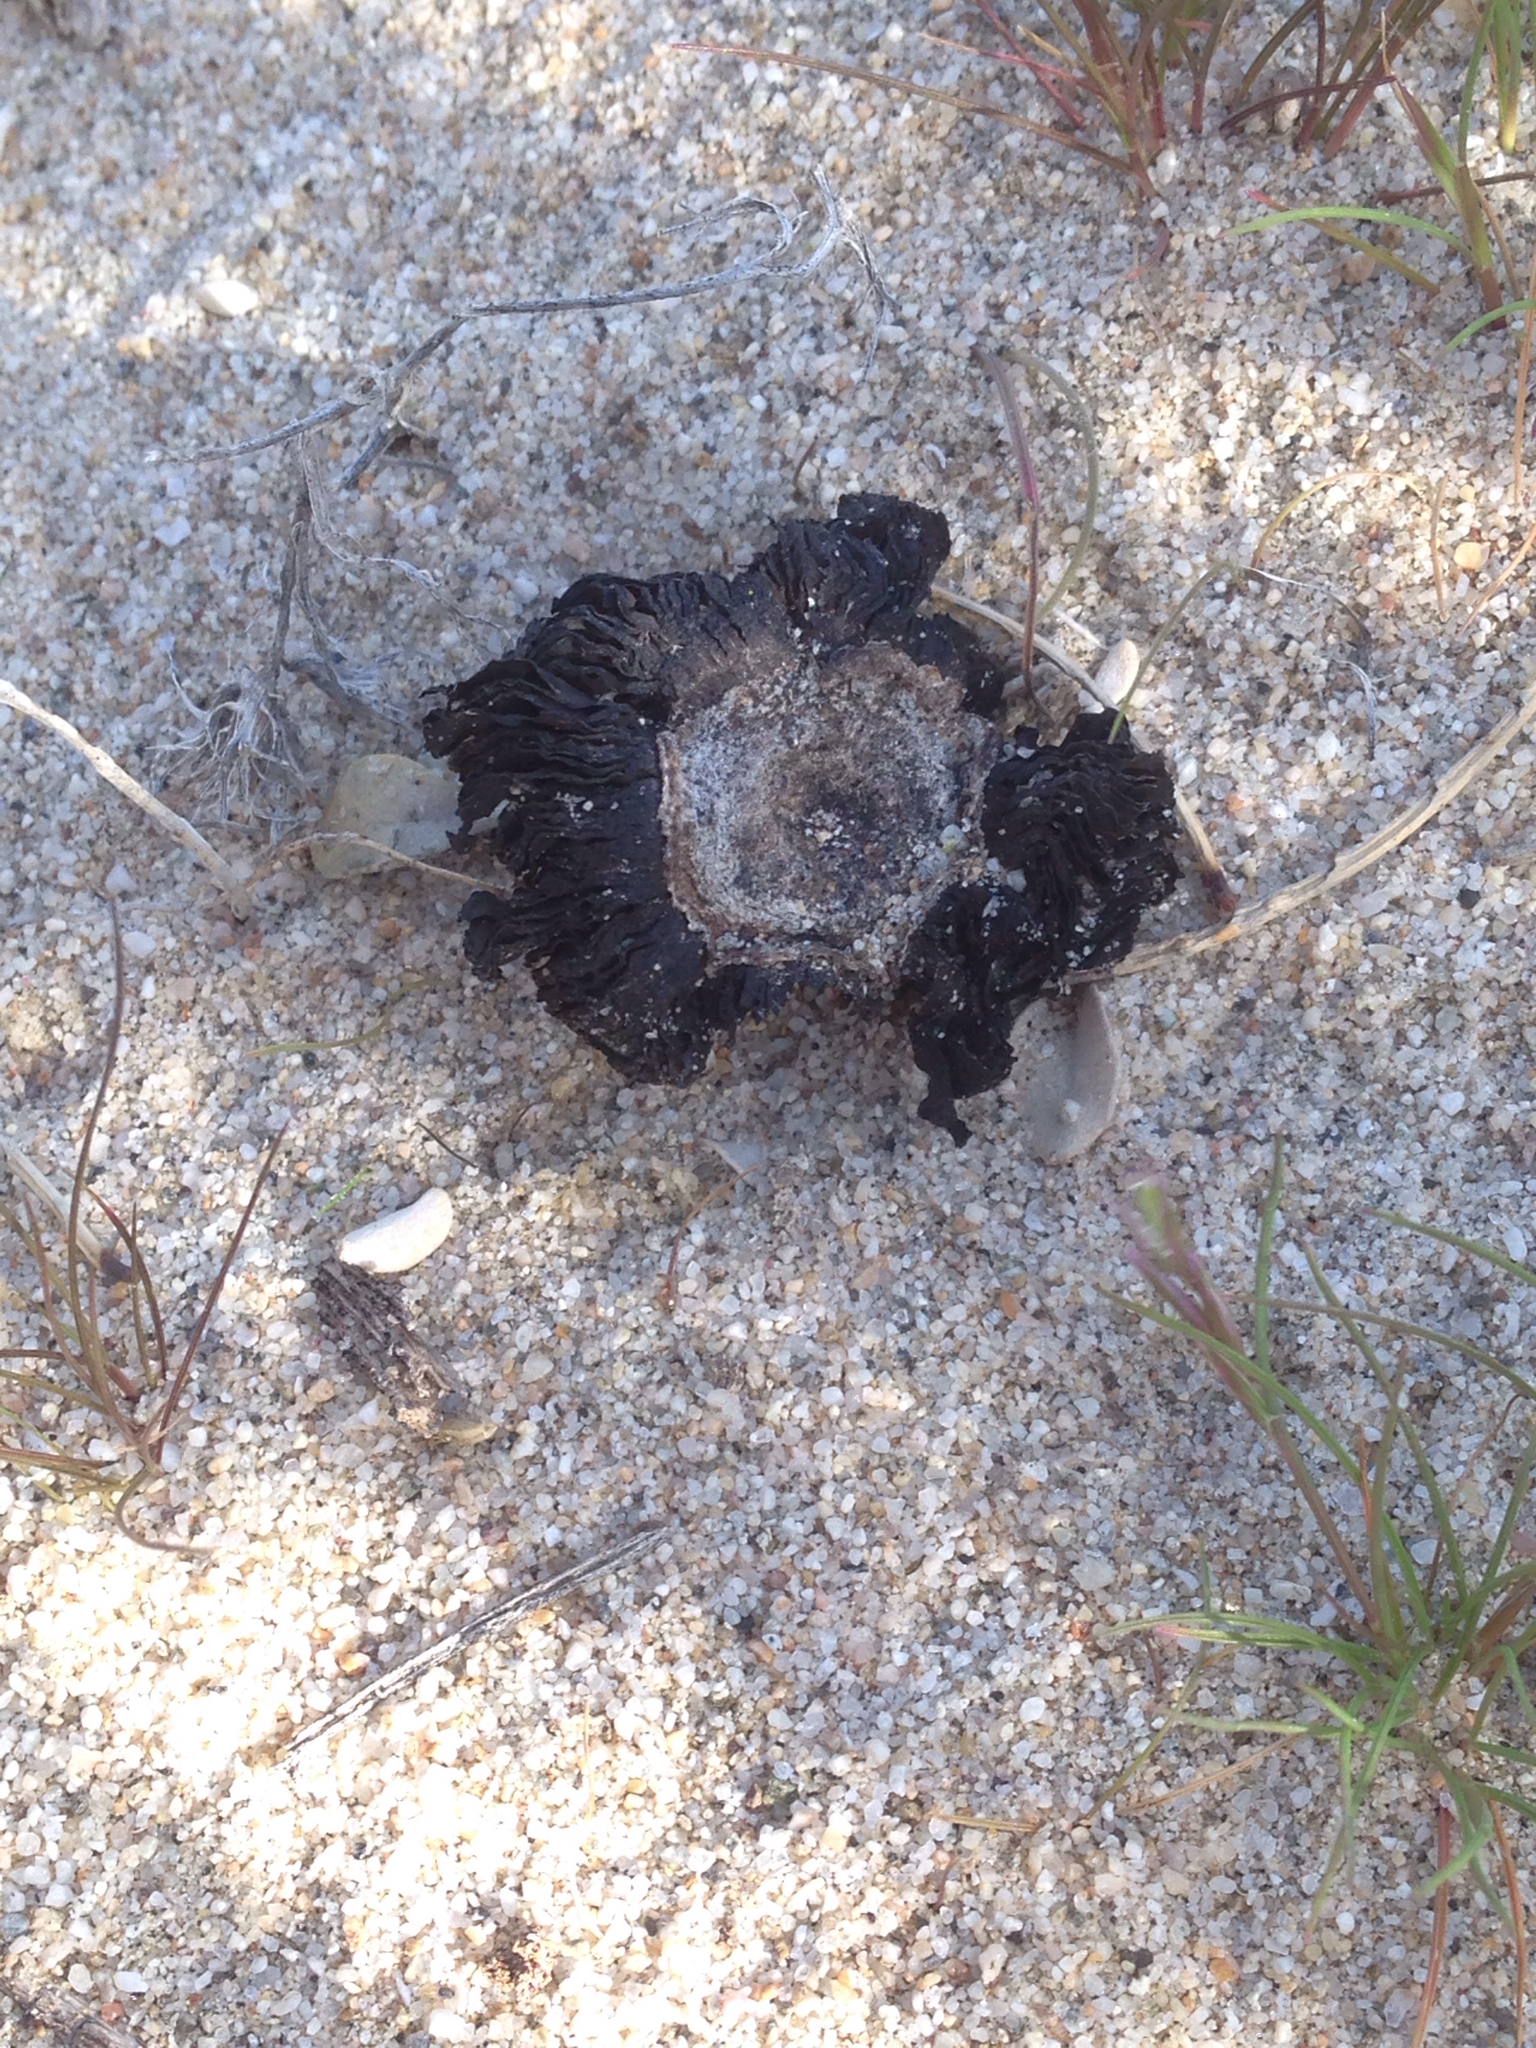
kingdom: Fungi
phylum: Basidiomycota
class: Agaricomycetes
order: Agaricales
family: Agaricaceae
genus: Montagnea
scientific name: Montagnea arenaria
